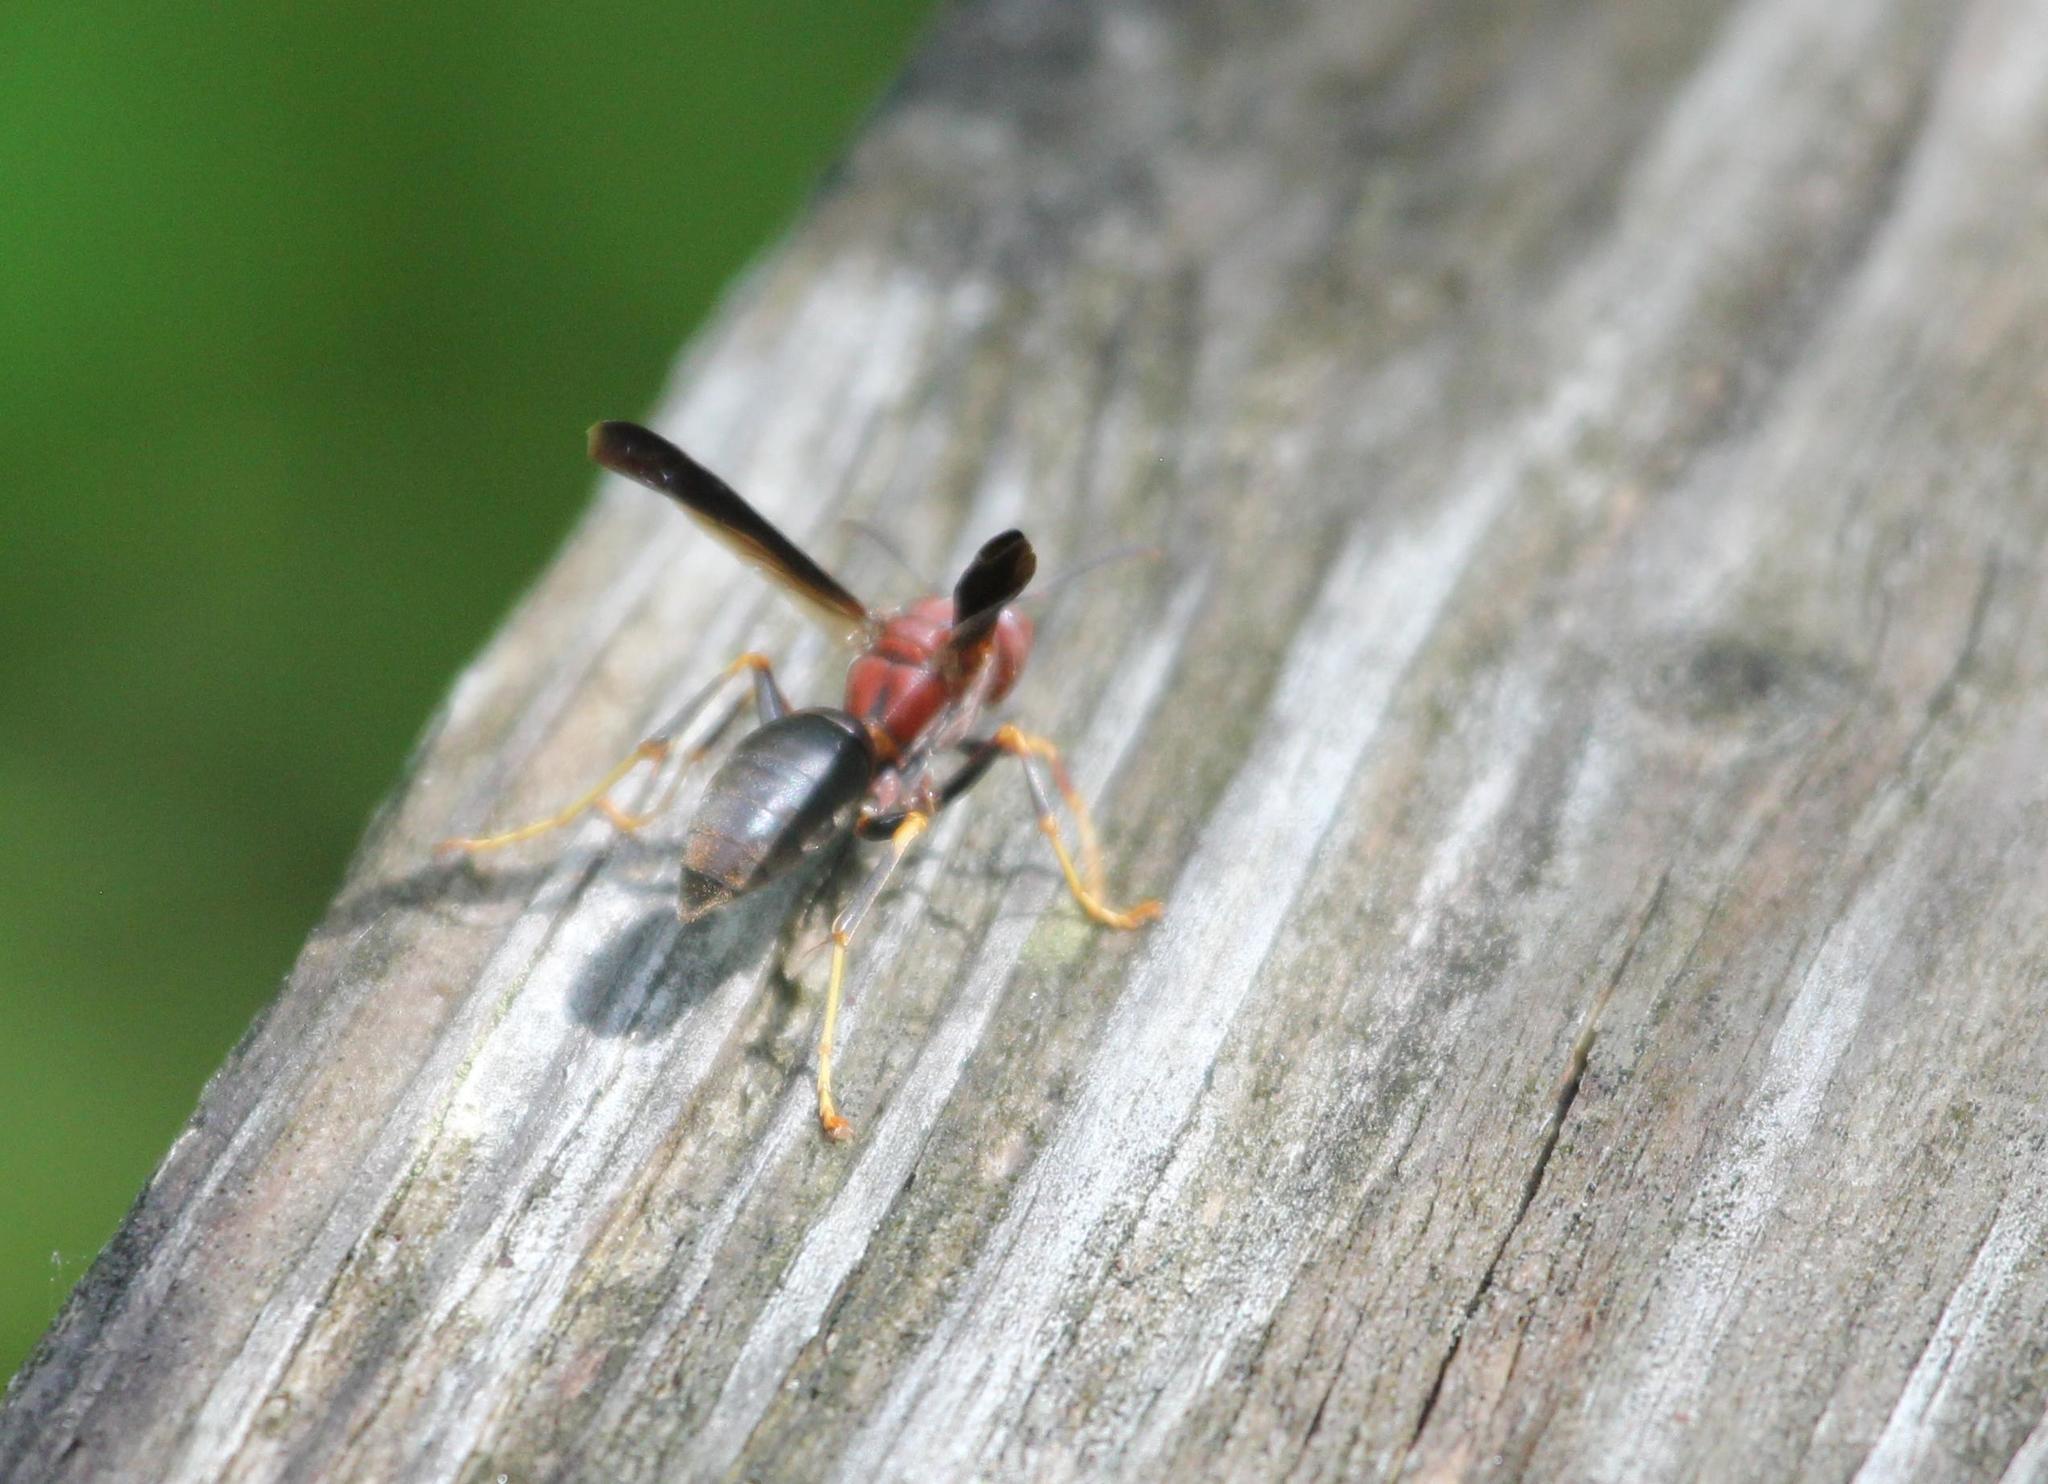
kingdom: Animalia
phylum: Arthropoda
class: Insecta
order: Hymenoptera
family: Eumenidae
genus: Polistes
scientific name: Polistes metricus
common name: Metric paper wasp
